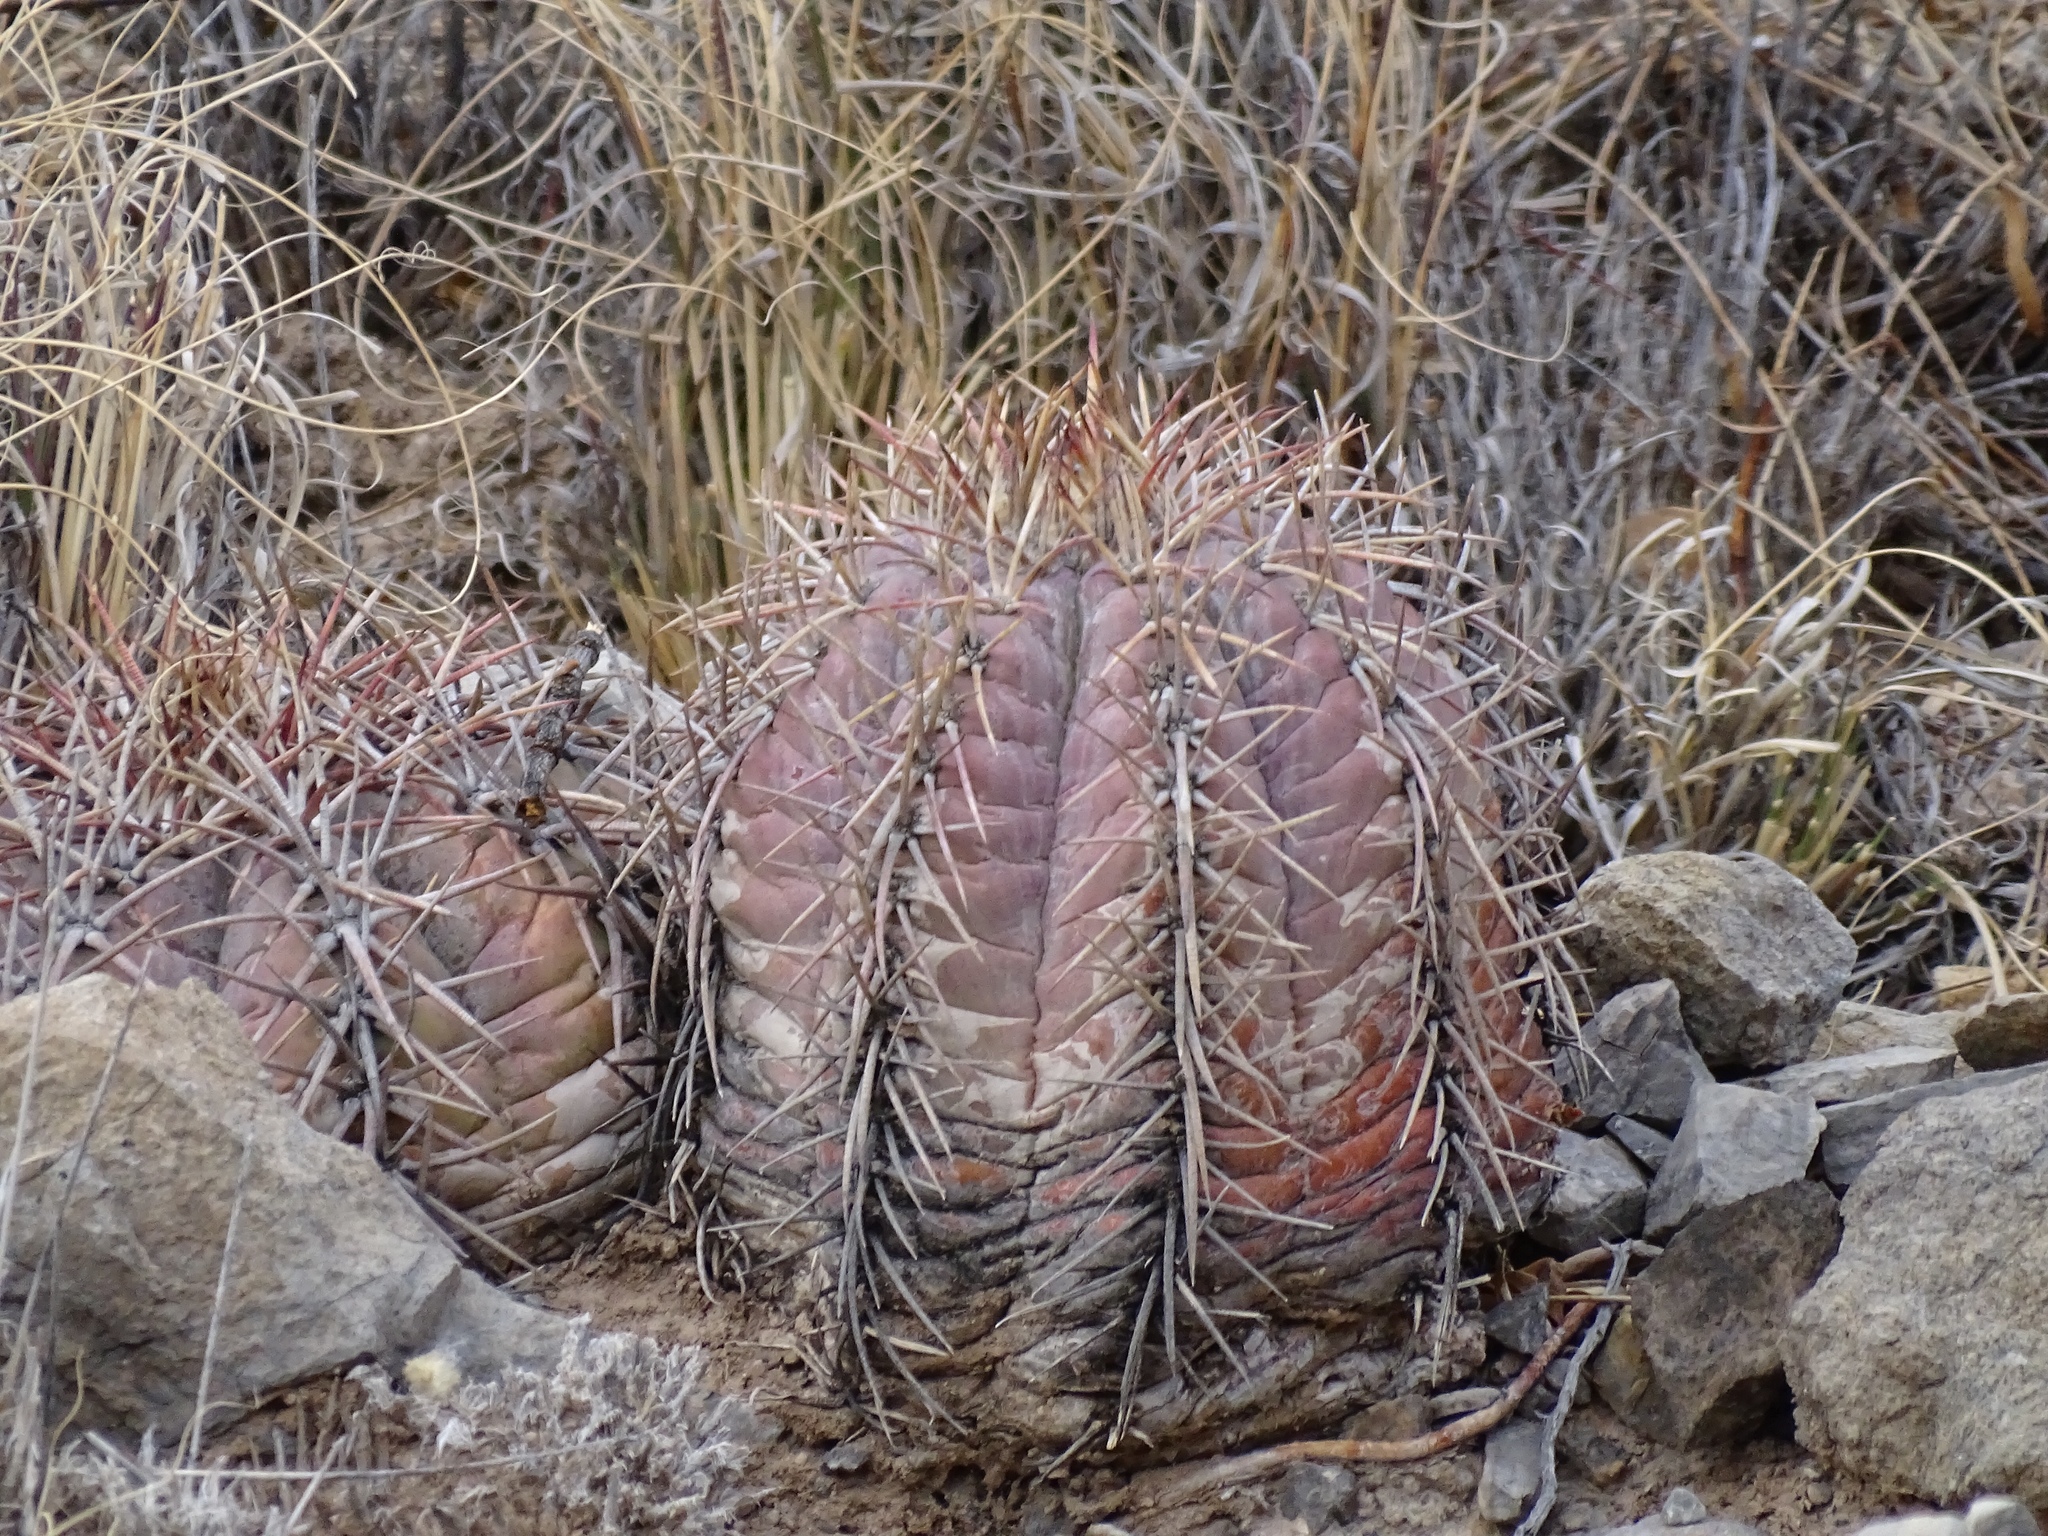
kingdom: Plantae
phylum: Tracheophyta
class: Magnoliopsida
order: Caryophyllales
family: Cactaceae
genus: Echinocactus
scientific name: Echinocactus horizonthalonius
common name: Devilshead
